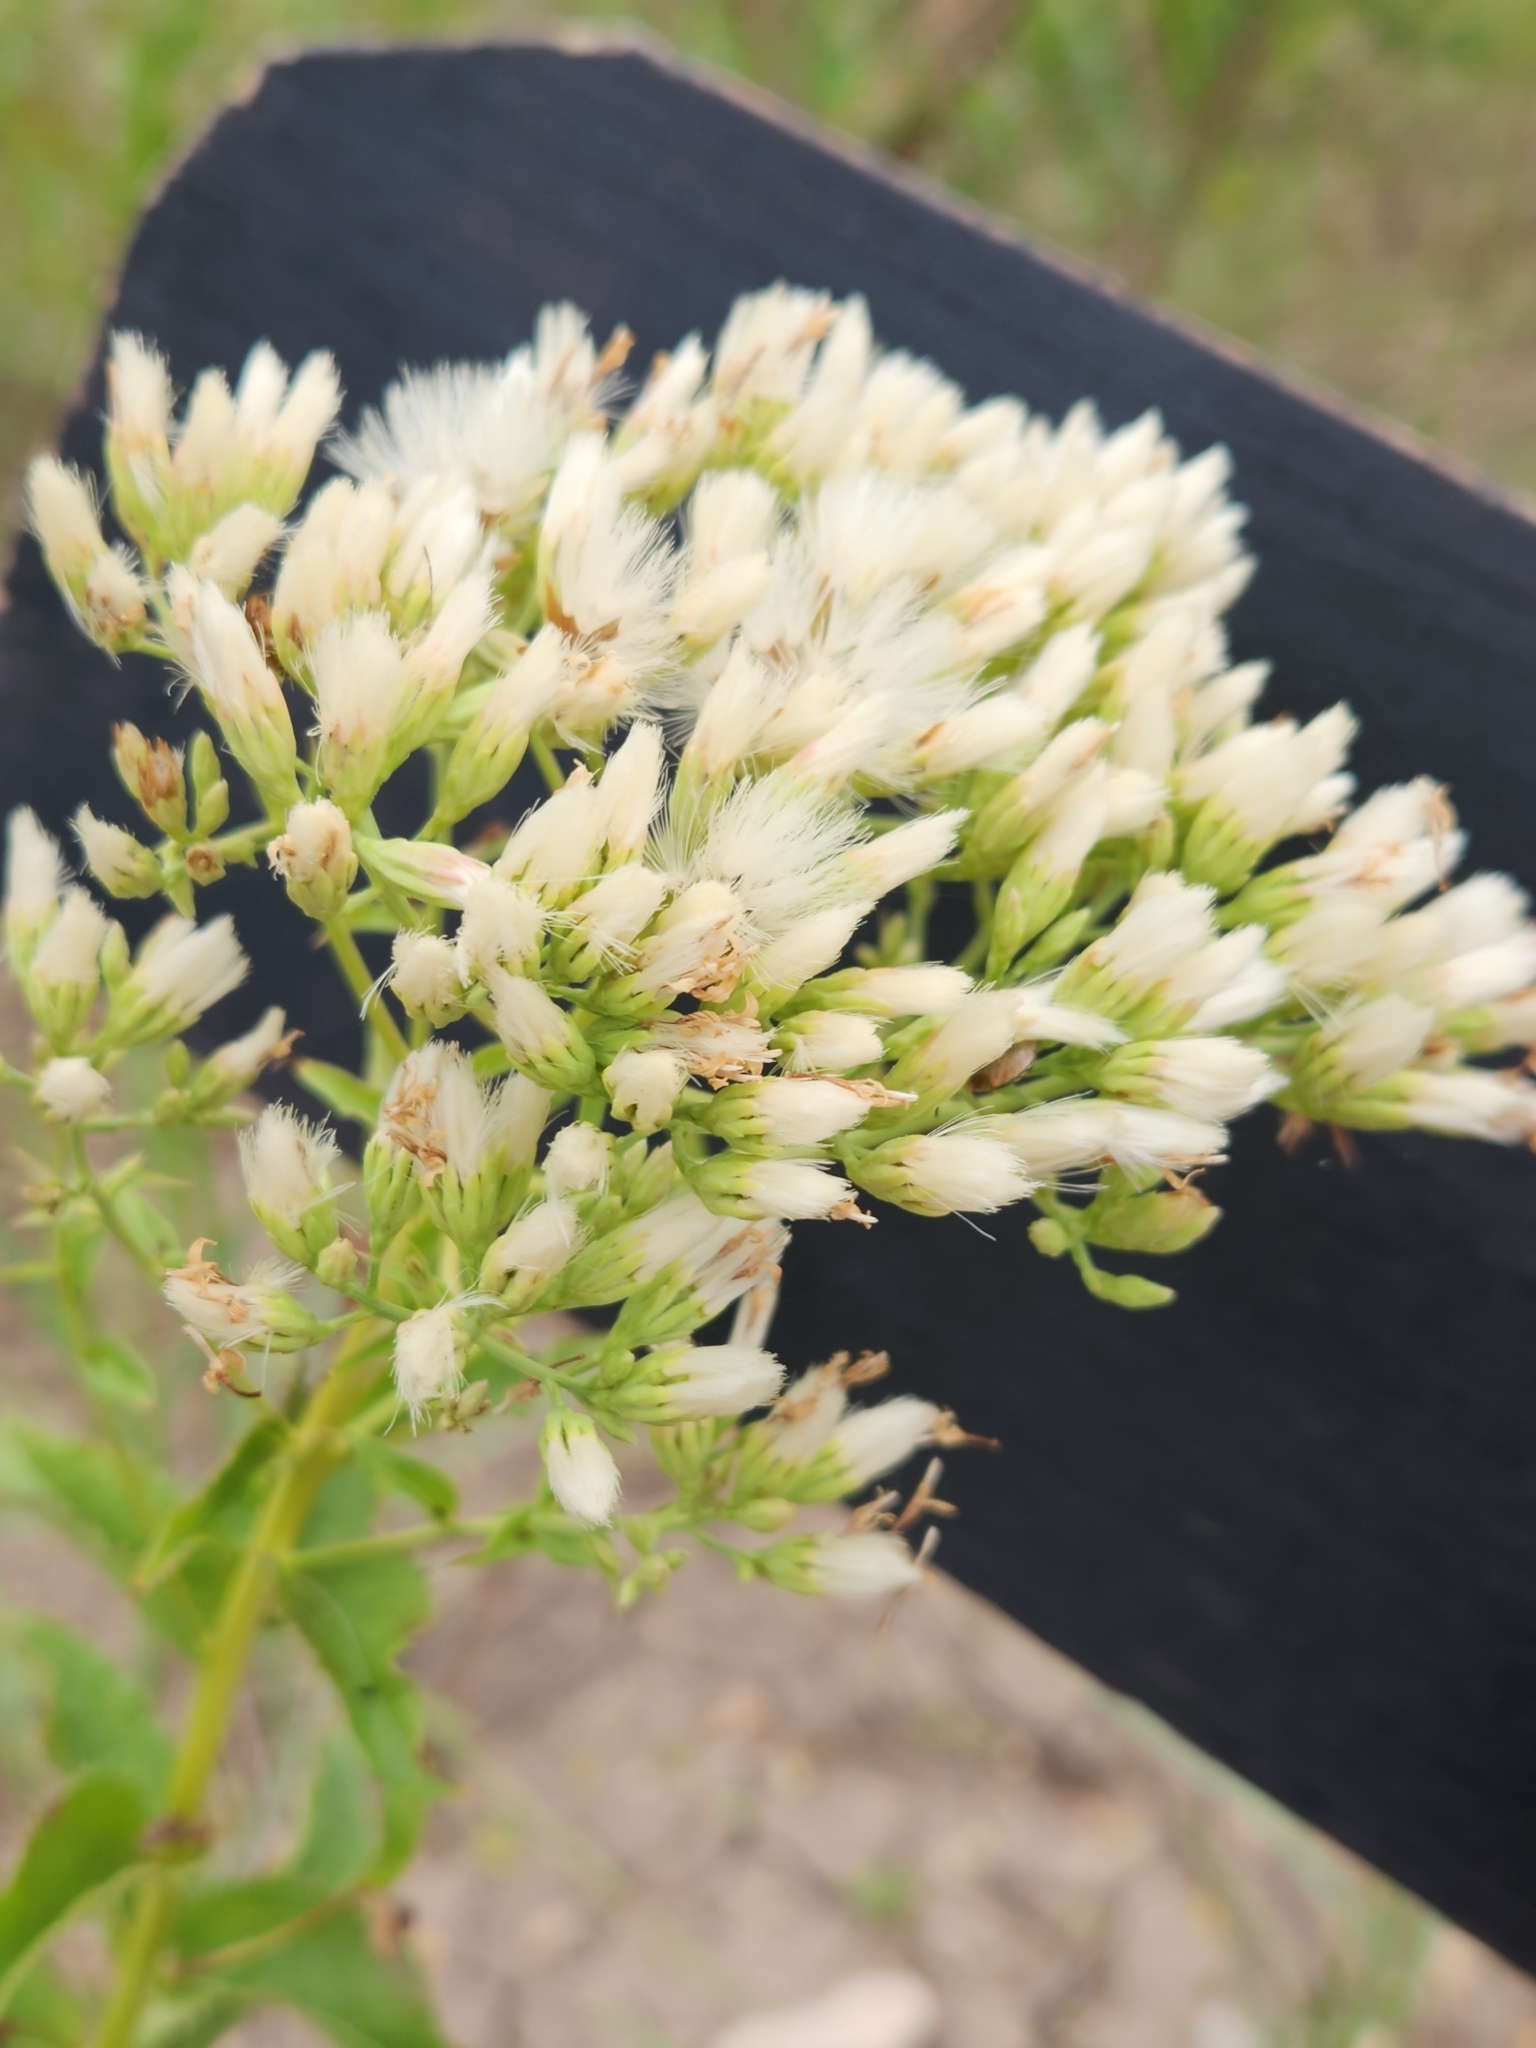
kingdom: Plantae
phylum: Tracheophyta
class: Magnoliopsida
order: Asterales
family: Asteraceae
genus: Acourtia
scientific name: Acourtia wrightii
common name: Brownfoot
